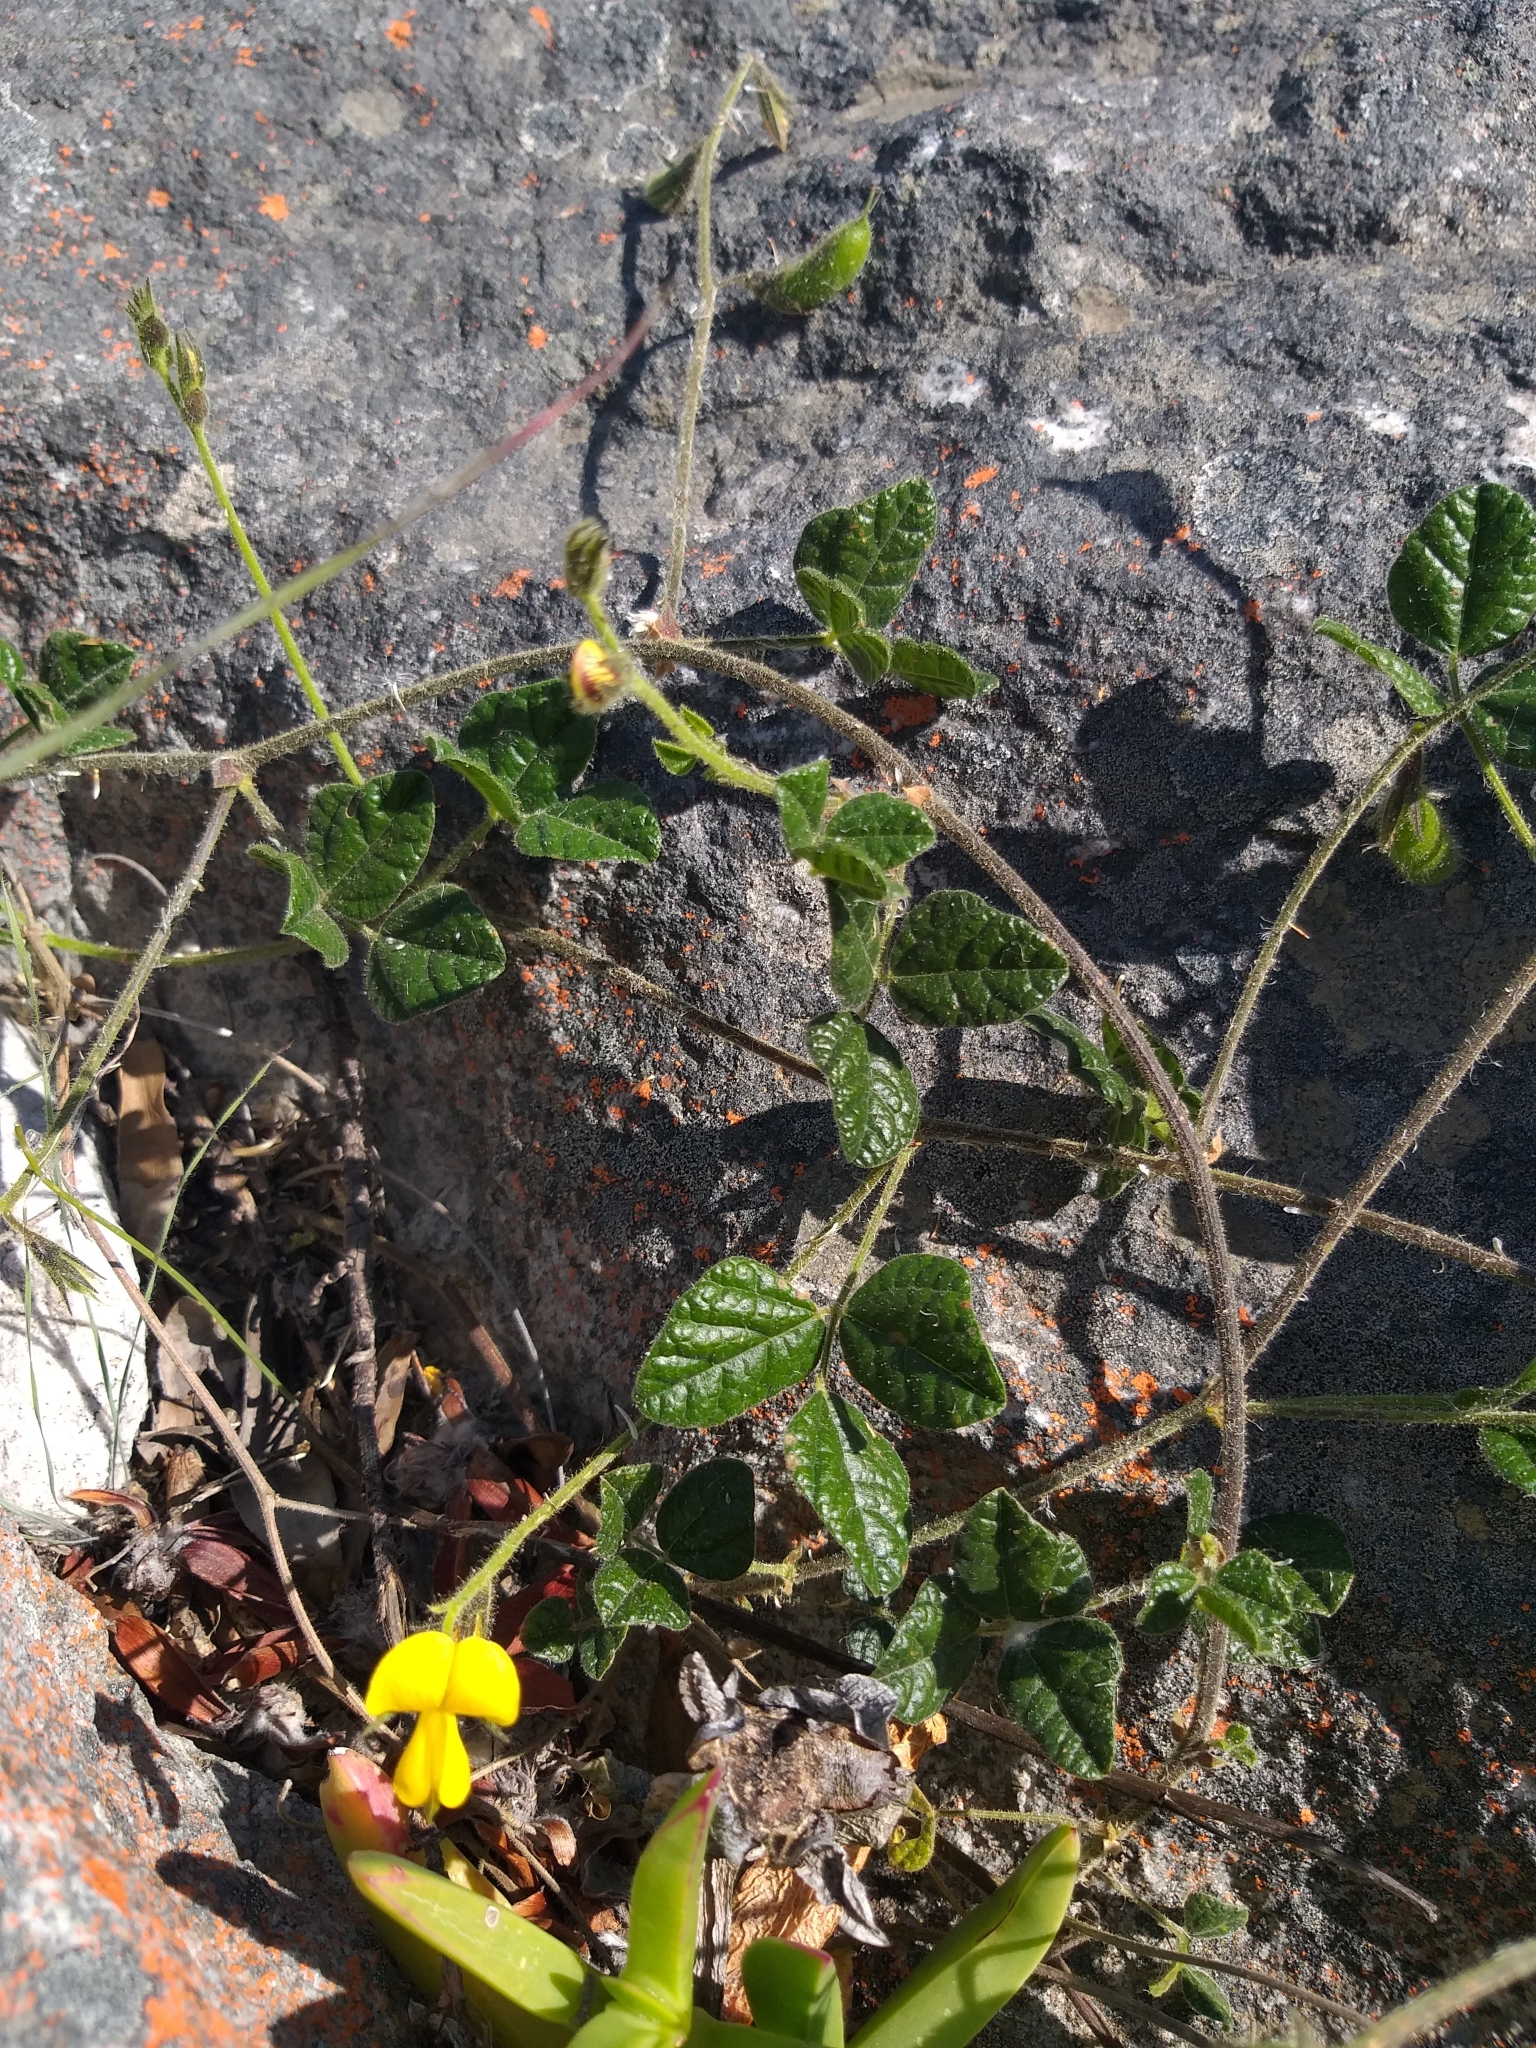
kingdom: Plantae
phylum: Tracheophyta
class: Magnoliopsida
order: Fabales
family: Fabaceae
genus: Bolusafra
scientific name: Bolusafra bituminosa
